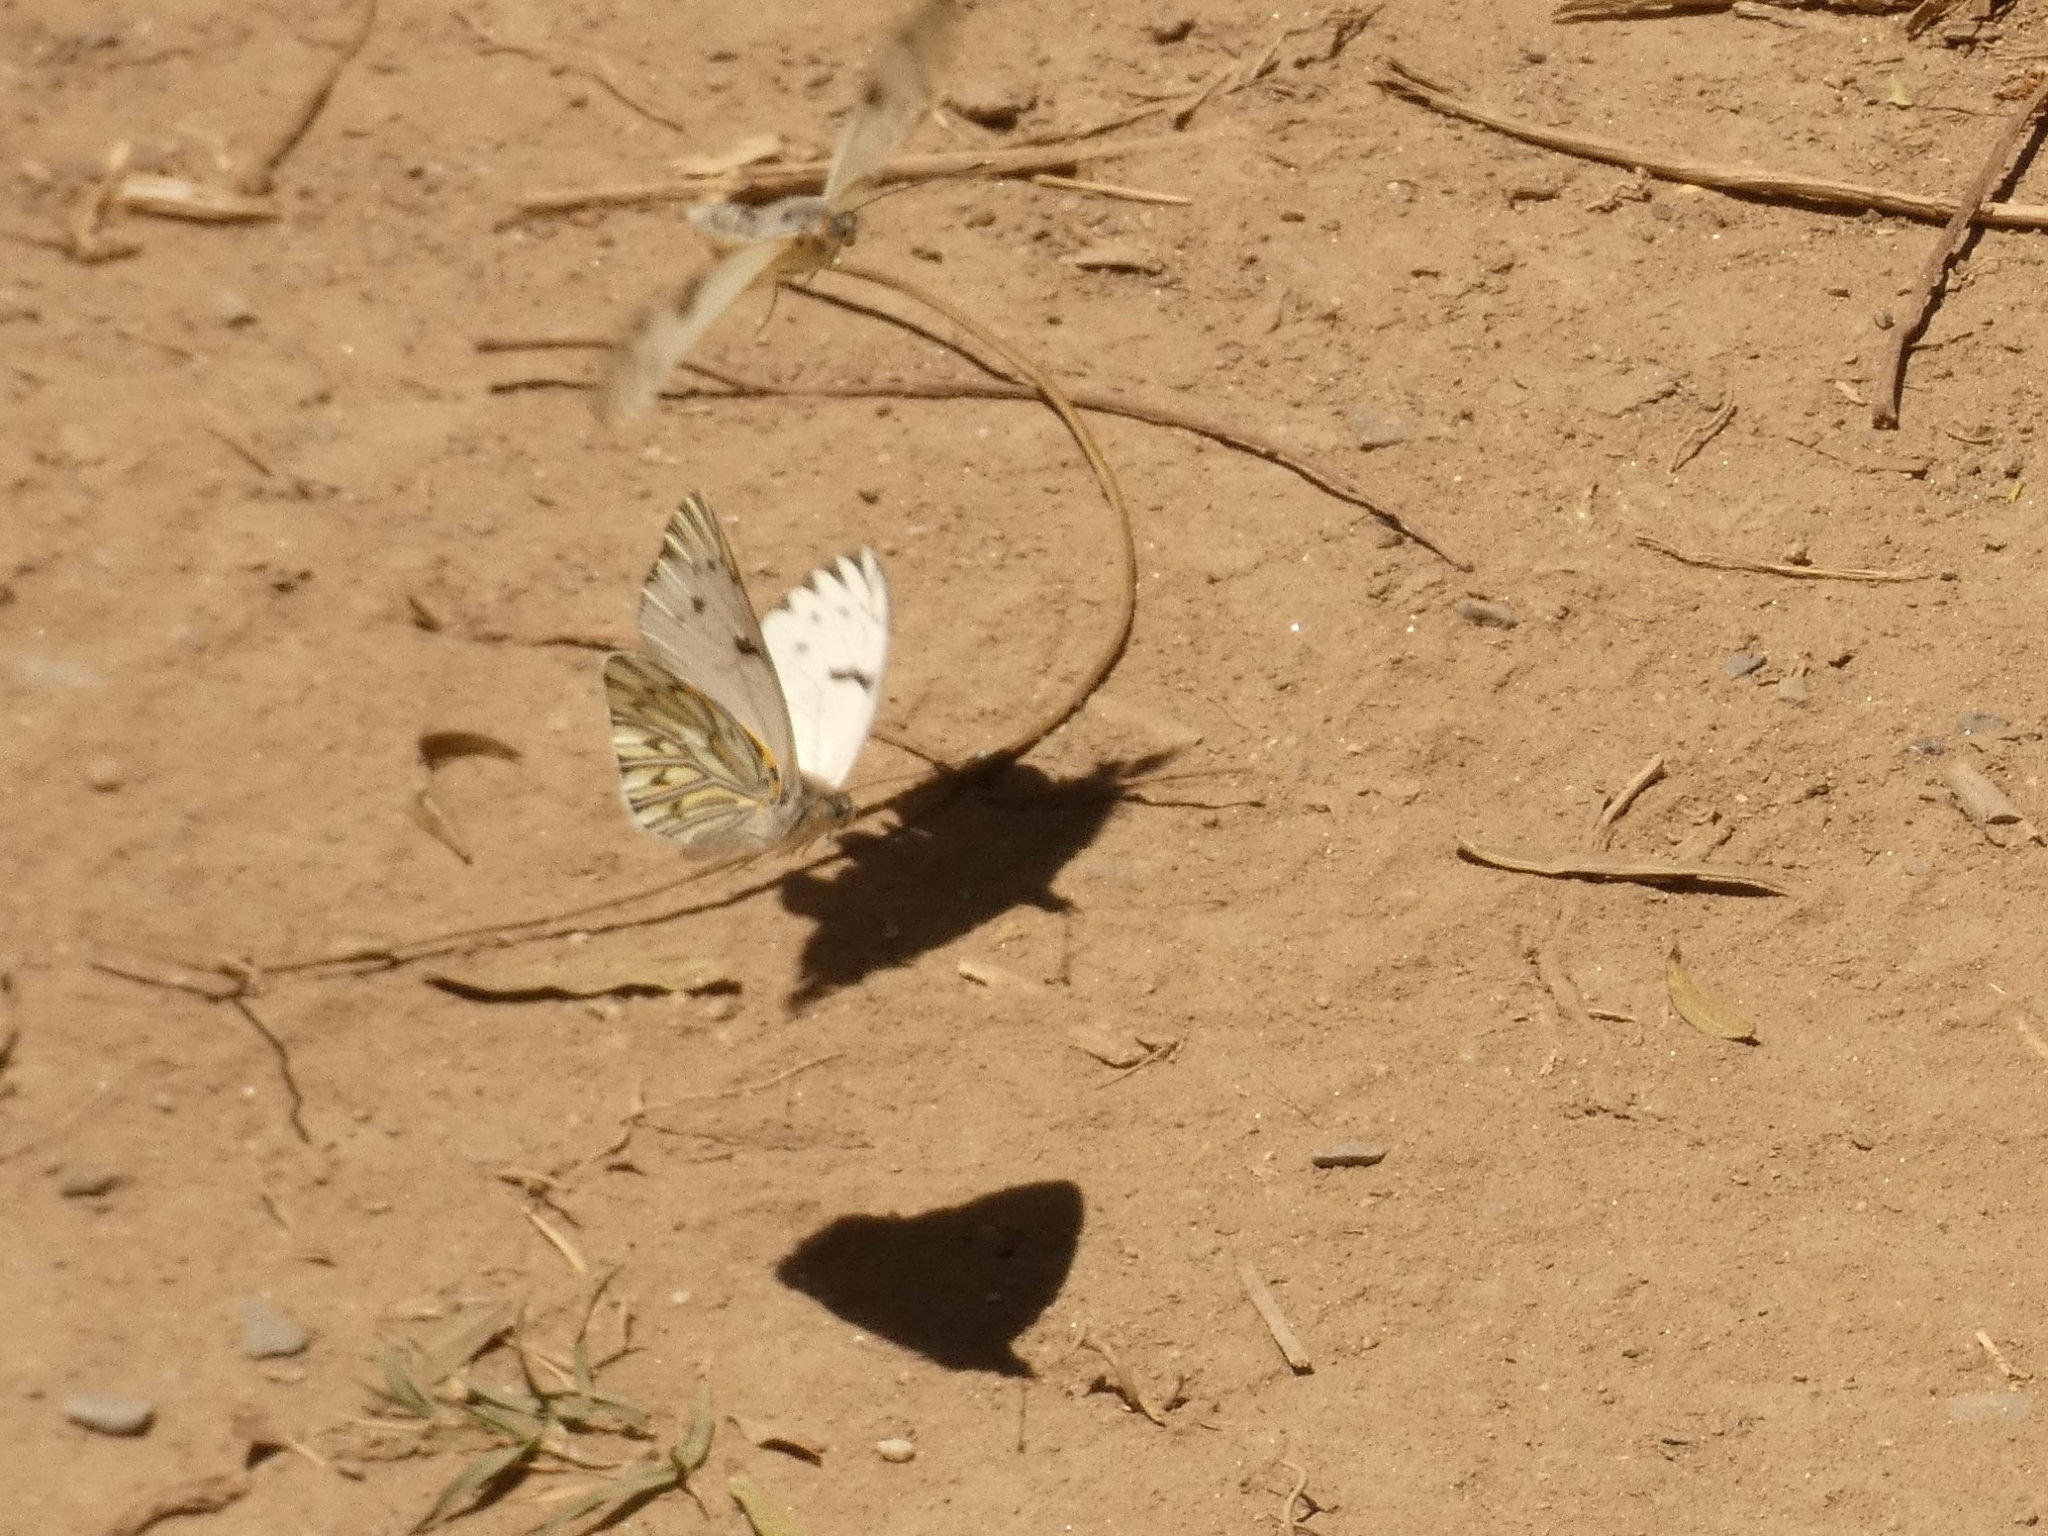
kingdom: Animalia
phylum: Arthropoda
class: Insecta
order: Lepidoptera
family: Pieridae
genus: Tatochila
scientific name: Tatochila autodice
